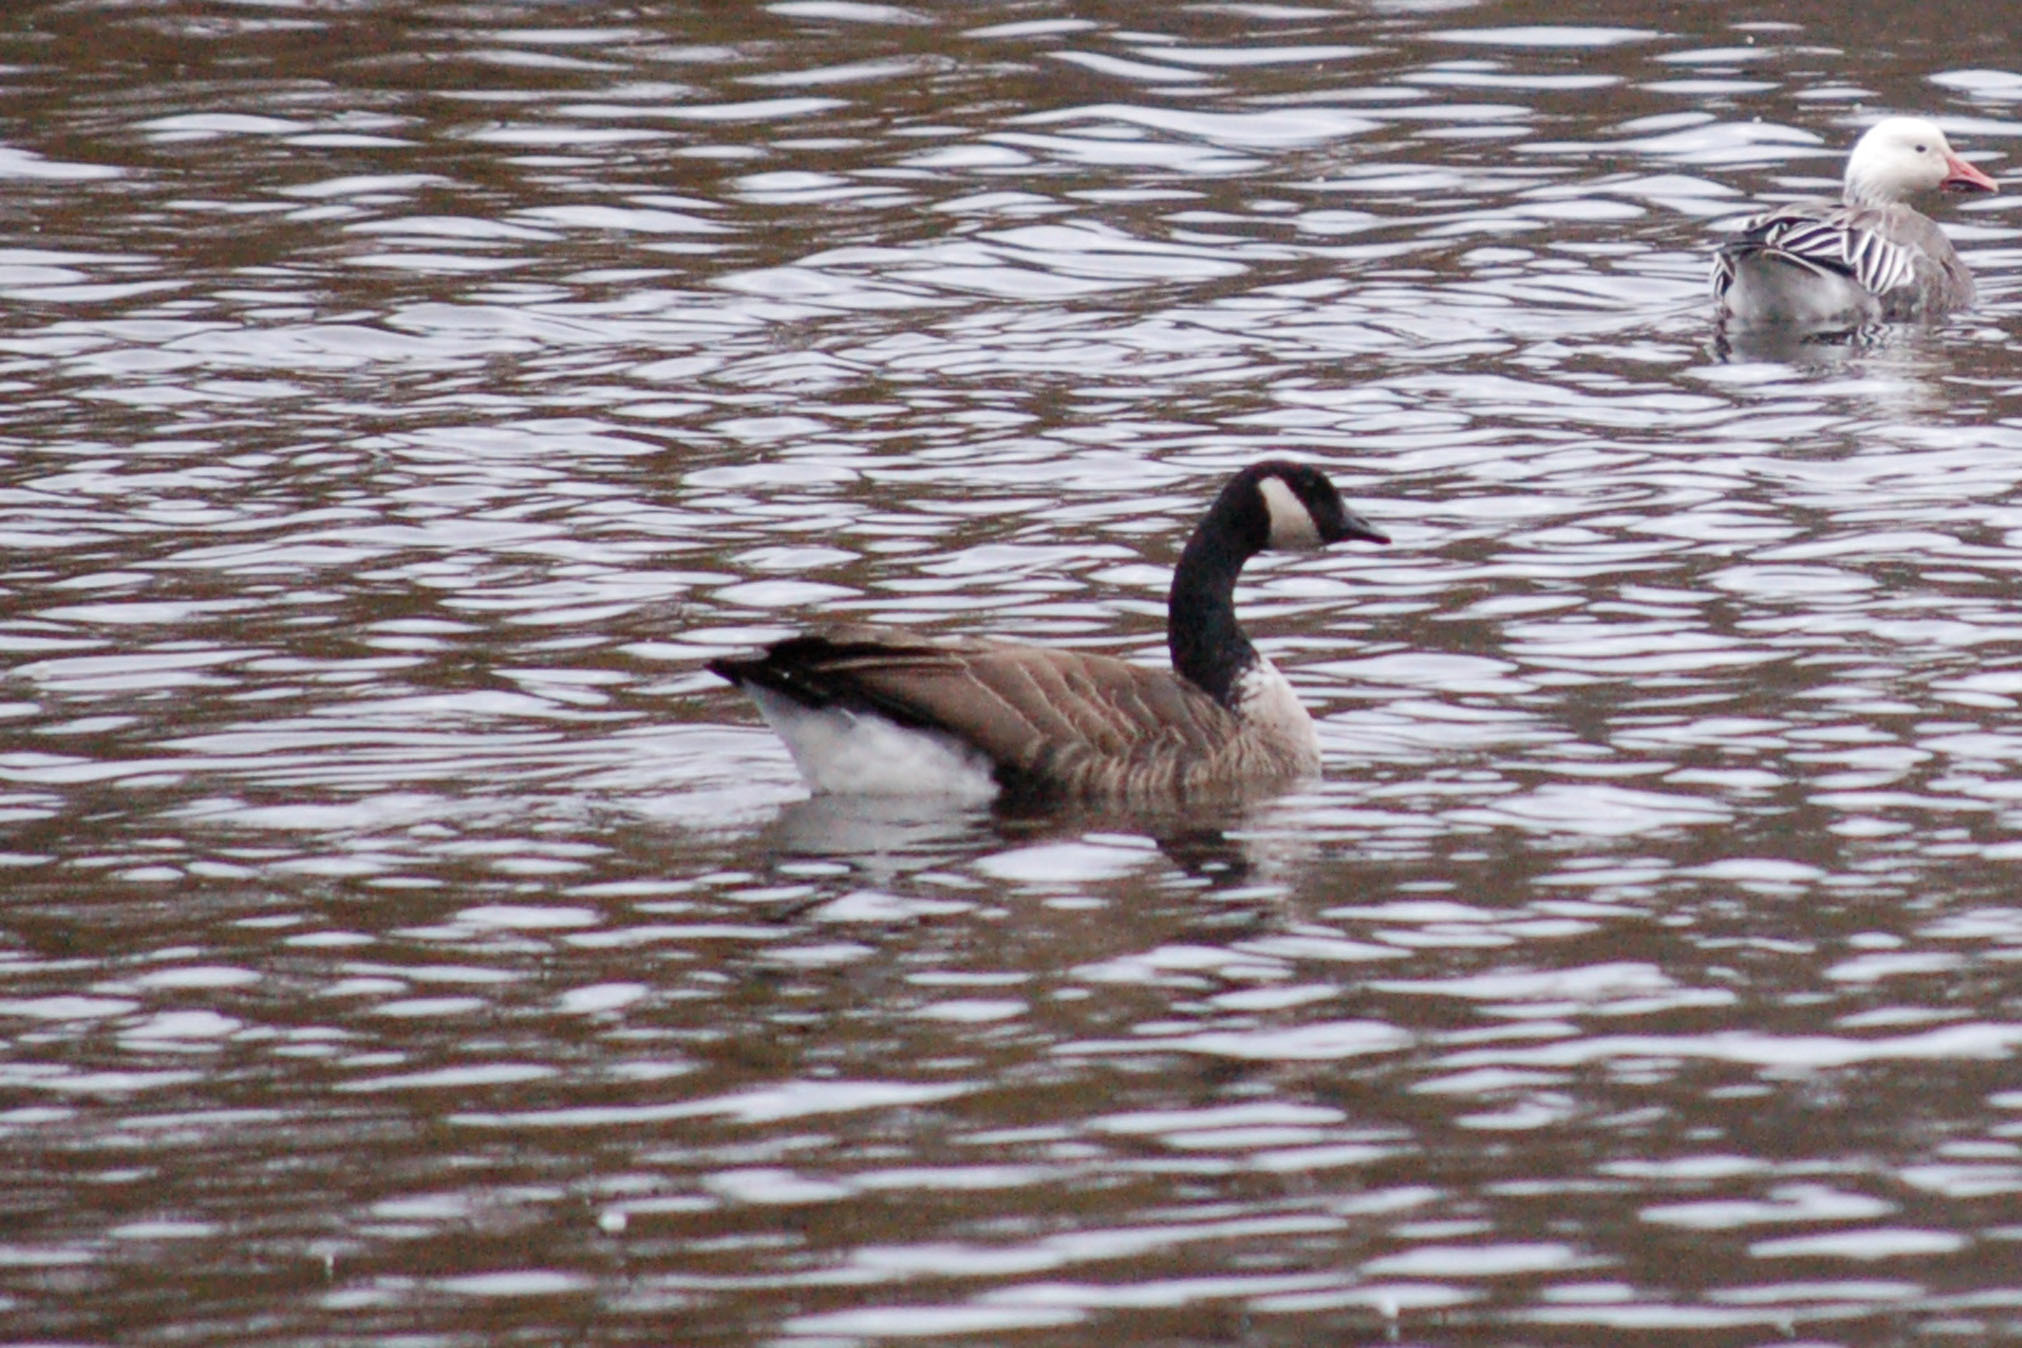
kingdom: Animalia
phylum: Chordata
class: Aves
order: Anseriformes
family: Anatidae
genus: Branta
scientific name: Branta canadensis
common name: Canada goose
